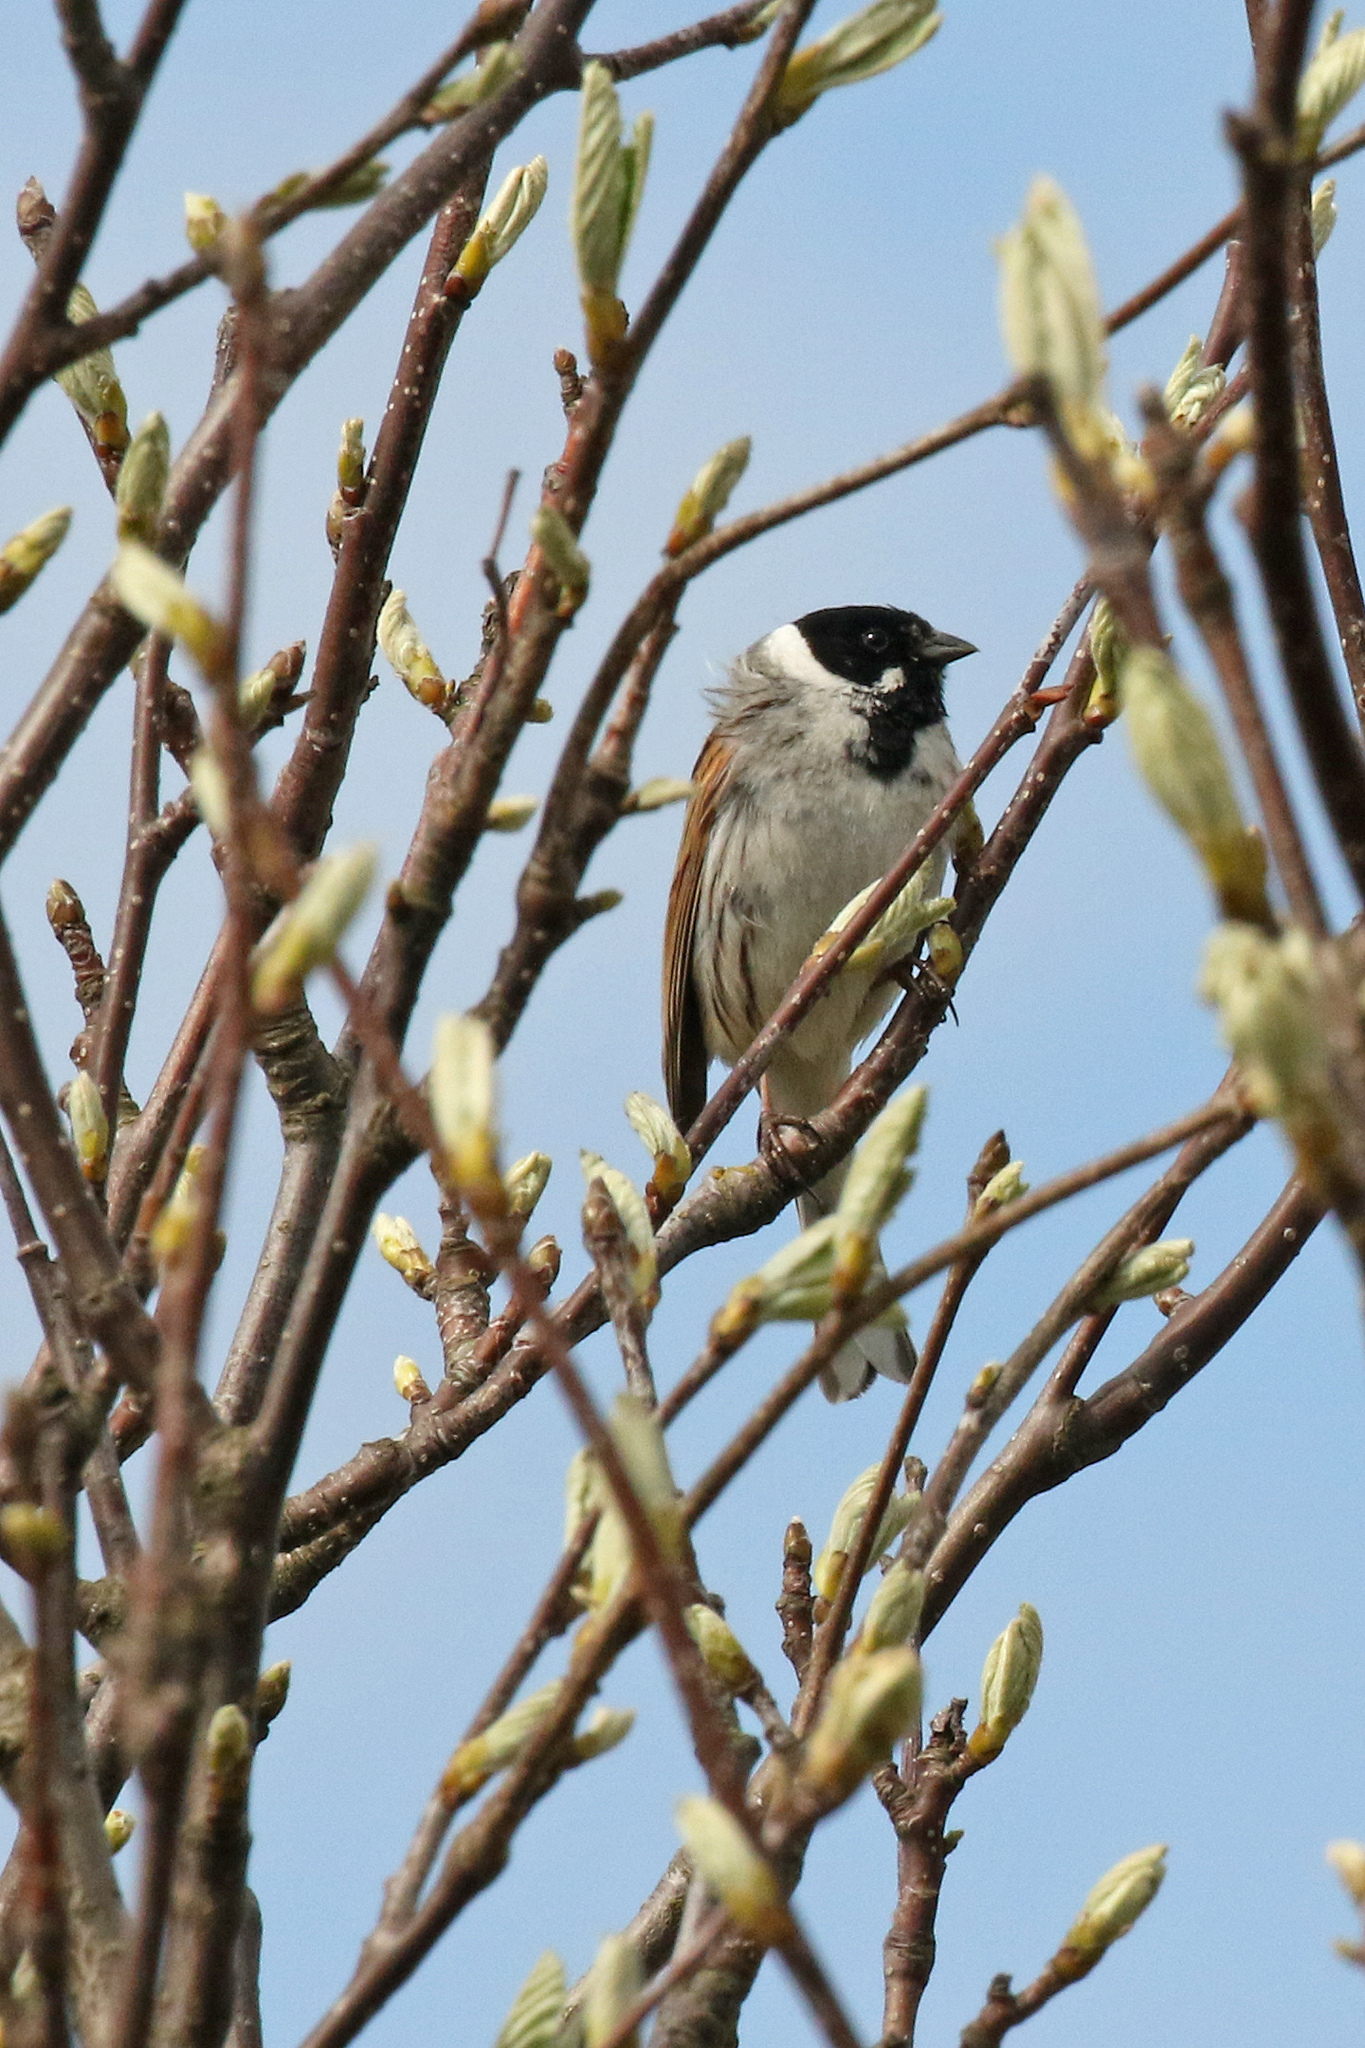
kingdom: Animalia
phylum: Chordata
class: Aves
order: Passeriformes
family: Emberizidae
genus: Emberiza
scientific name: Emberiza schoeniclus
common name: Reed bunting
